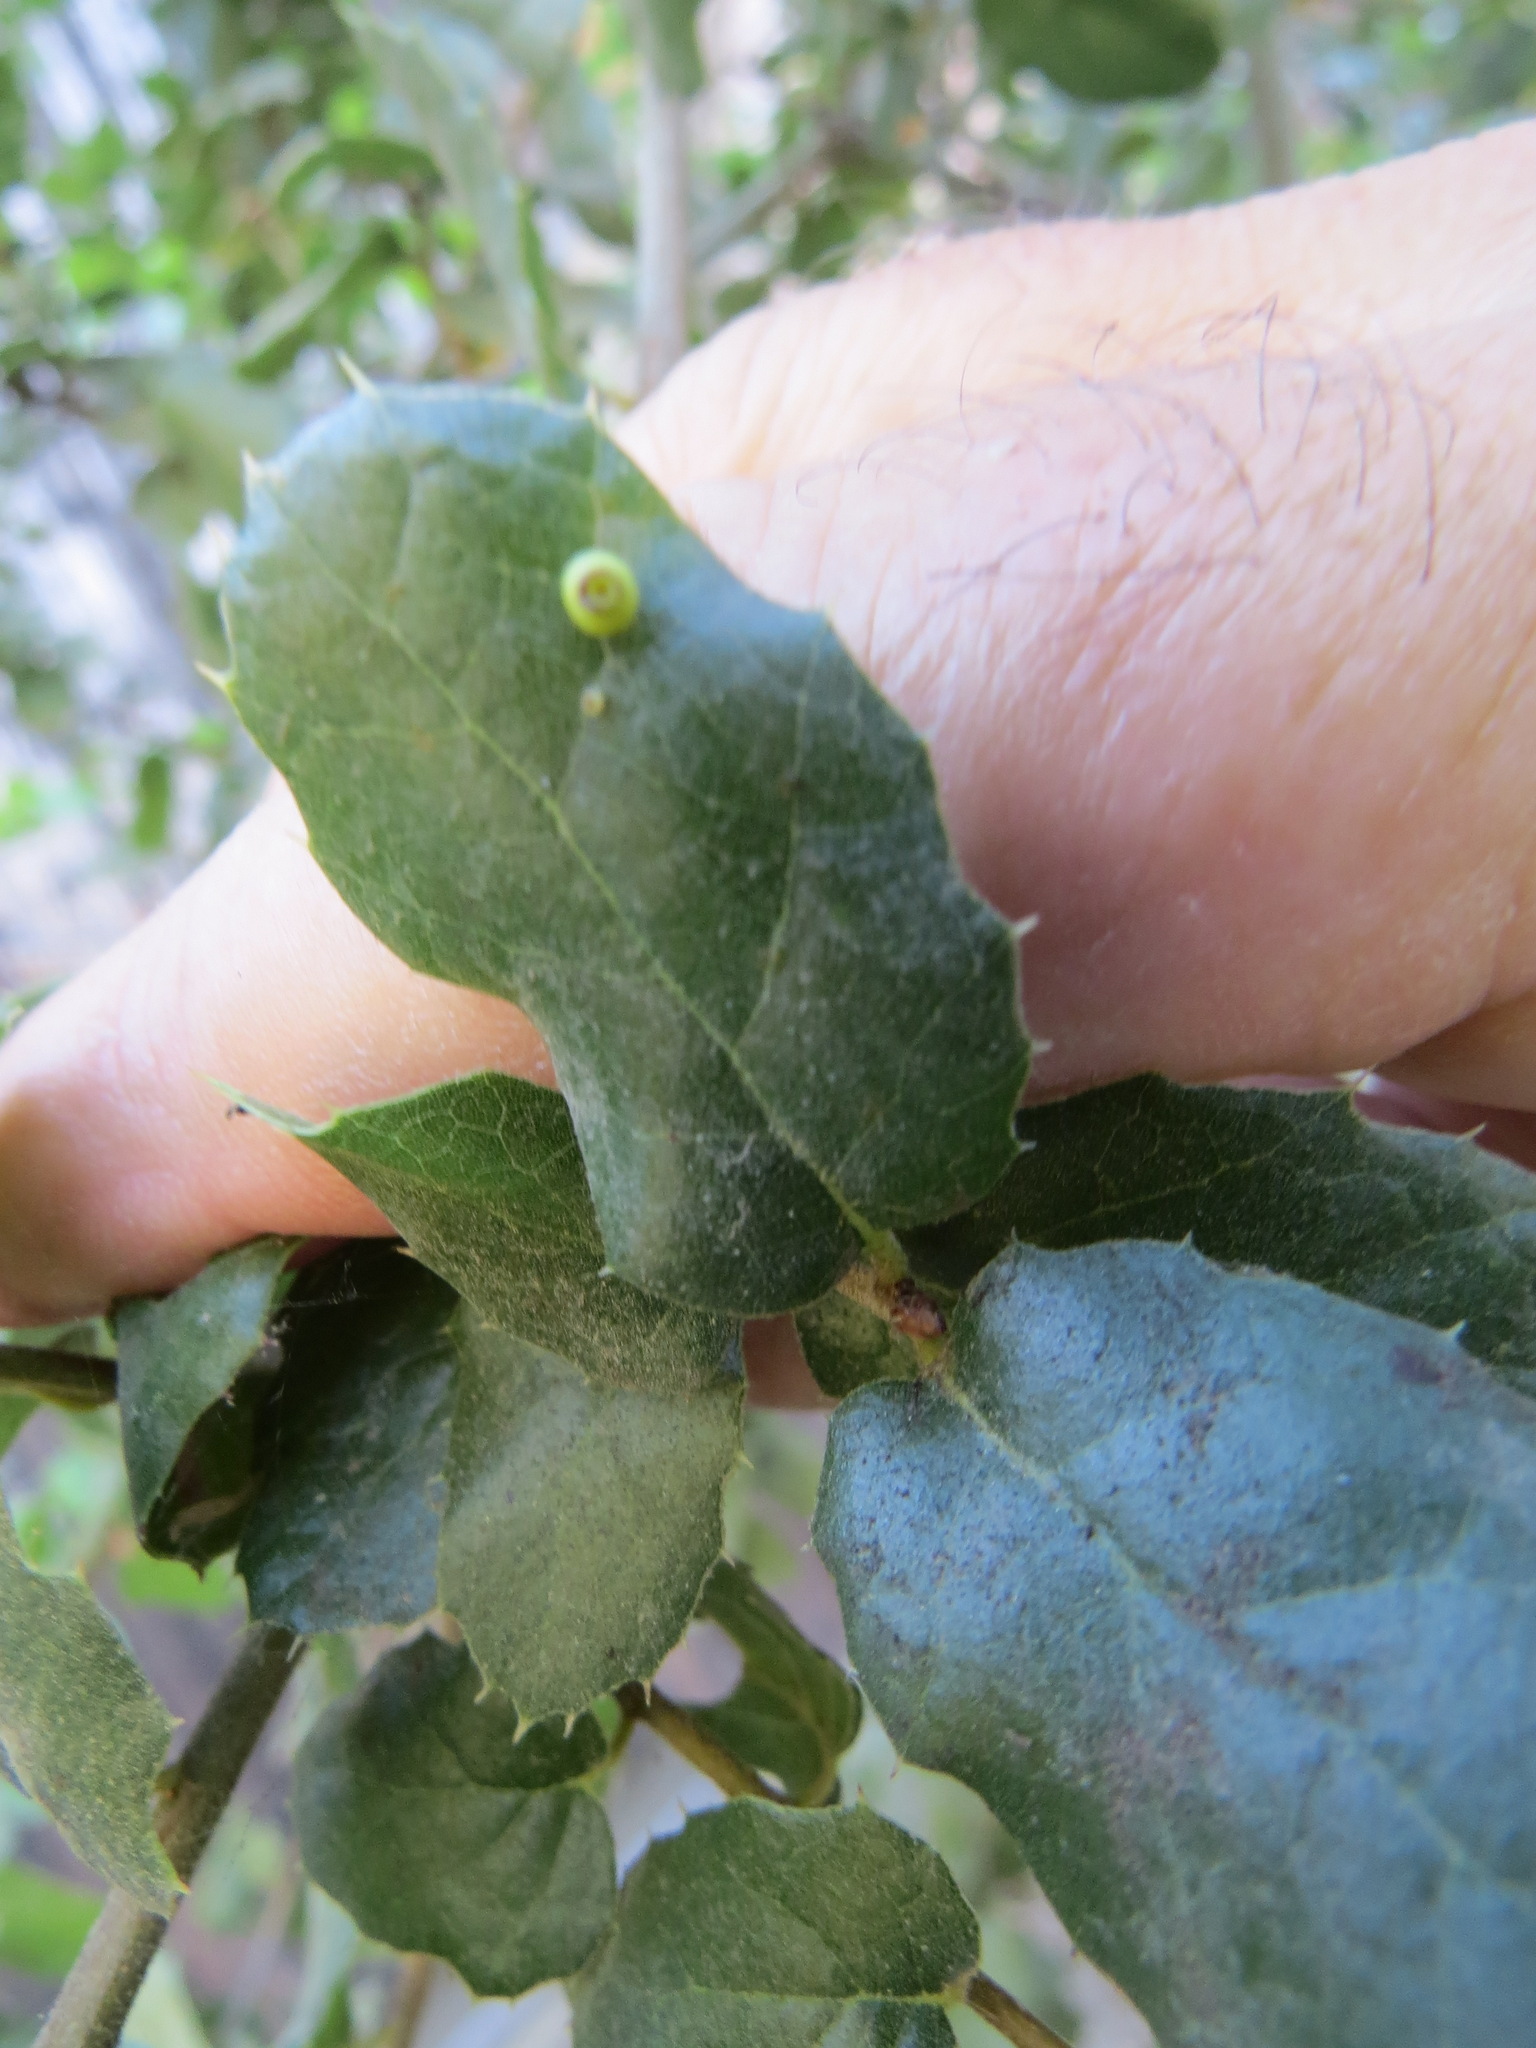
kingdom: Animalia
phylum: Arthropoda
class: Insecta
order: Hymenoptera
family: Cynipidae
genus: Dryocosmus
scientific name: Dryocosmus
